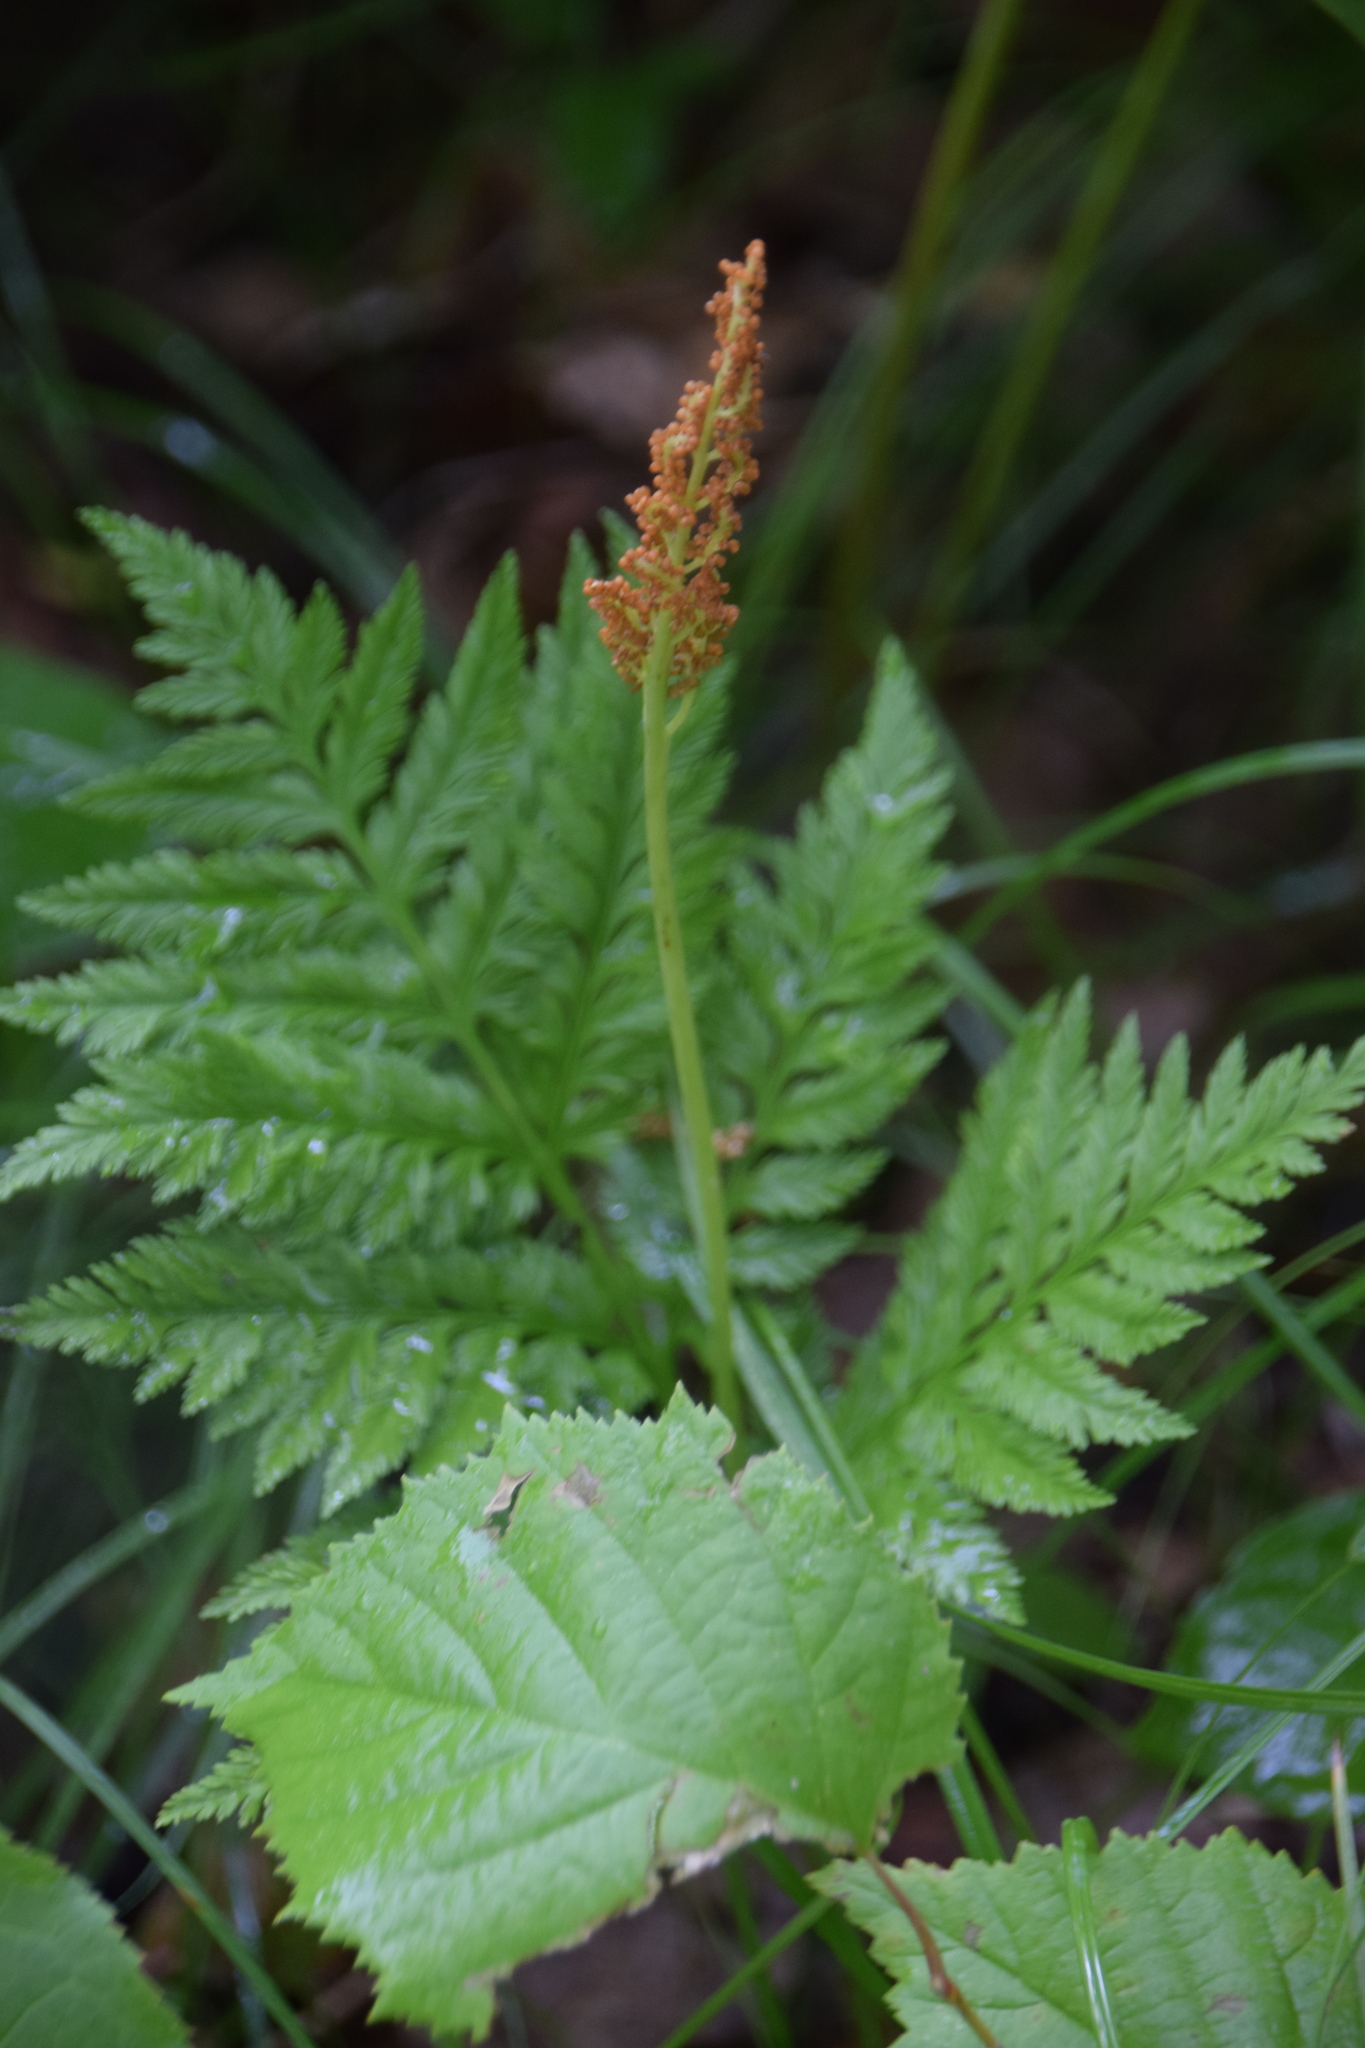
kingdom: Plantae
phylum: Tracheophyta
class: Polypodiopsida
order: Ophioglossales
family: Ophioglossaceae
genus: Botrypus
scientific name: Botrypus virginianus
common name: Common grapefern
